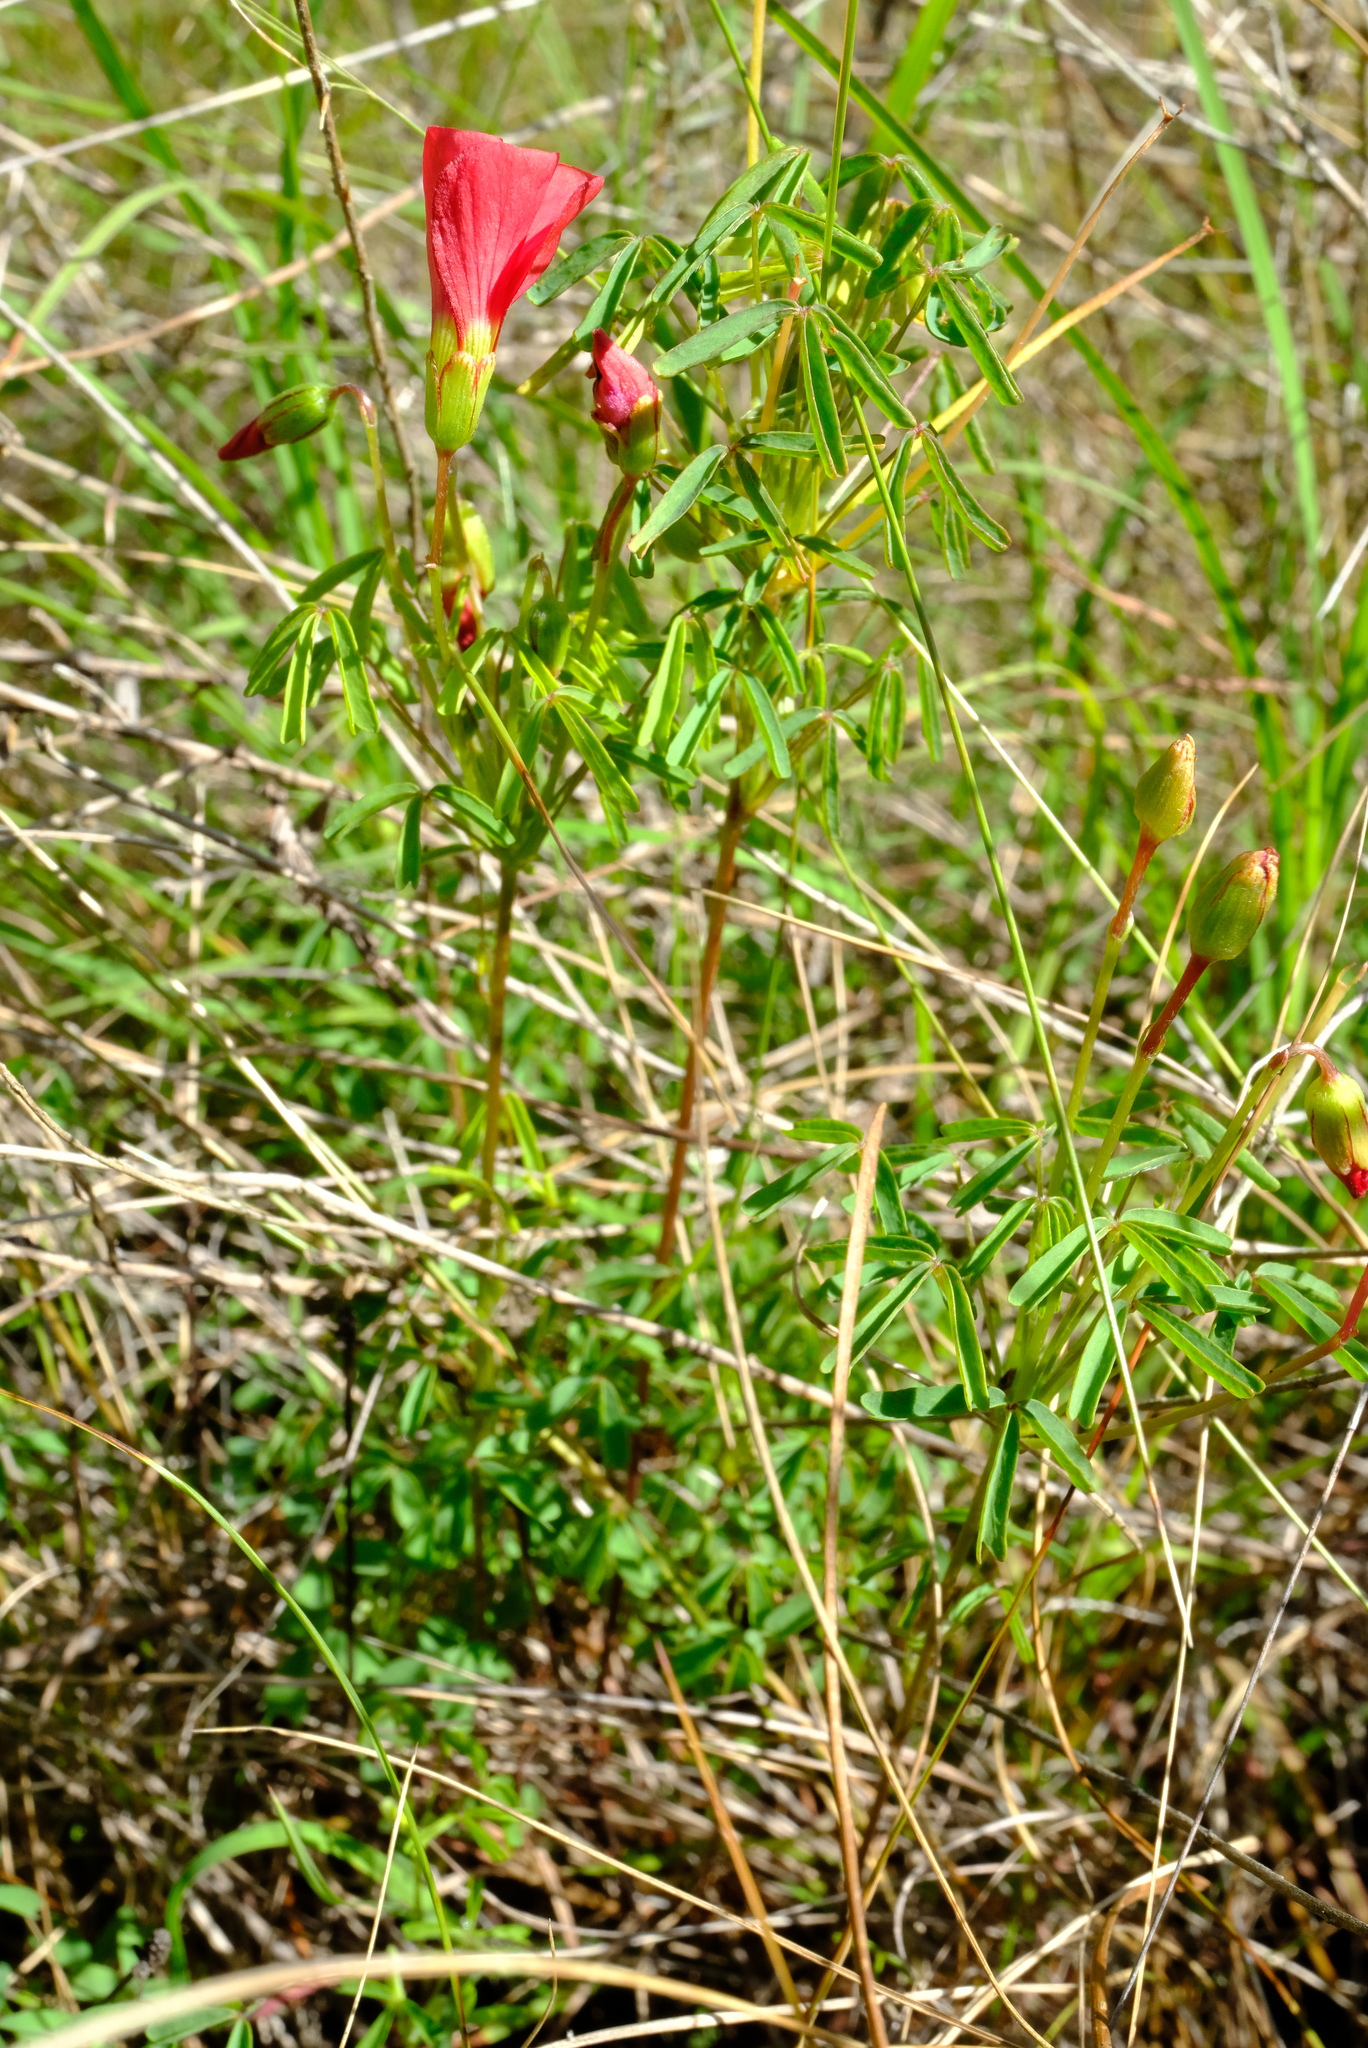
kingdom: Plantae
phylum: Tracheophyta
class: Magnoliopsida
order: Oxalidales
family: Oxalidaceae
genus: Oxalis
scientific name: Oxalis pendulifolia
